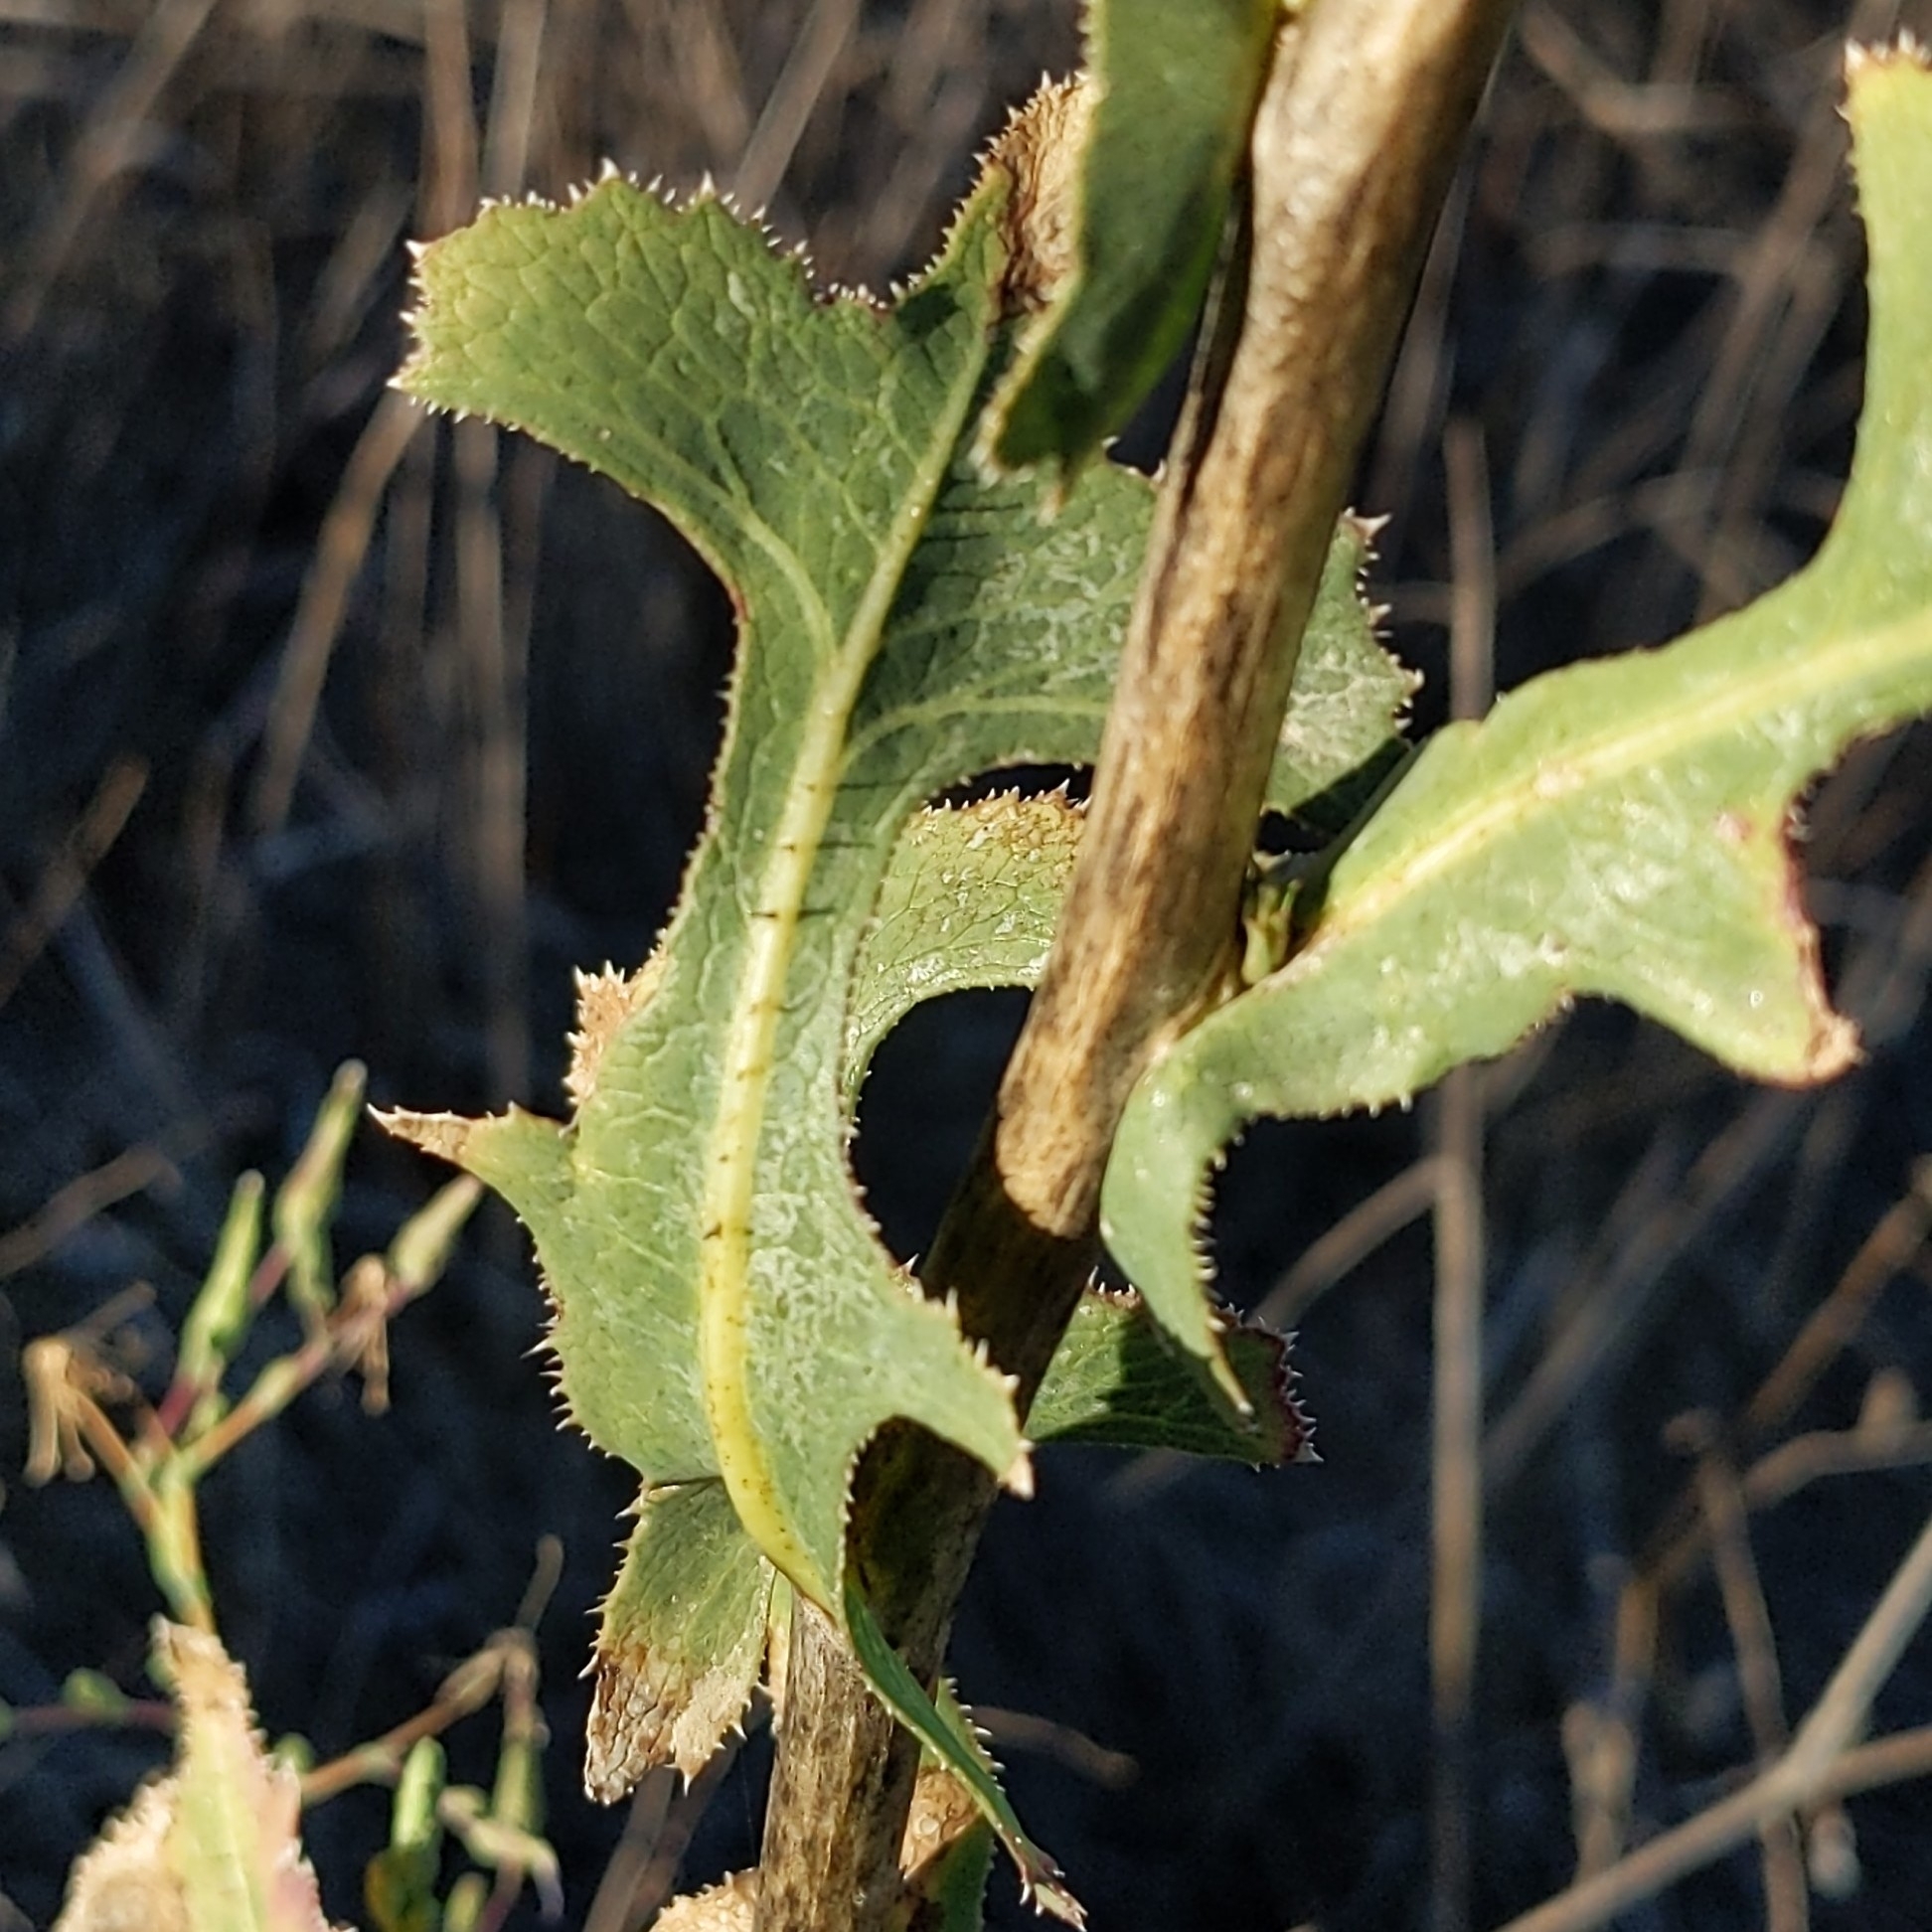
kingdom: Plantae
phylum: Tracheophyta
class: Magnoliopsida
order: Asterales
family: Asteraceae
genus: Lactuca
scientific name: Lactuca serriola
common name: Prickly lettuce
